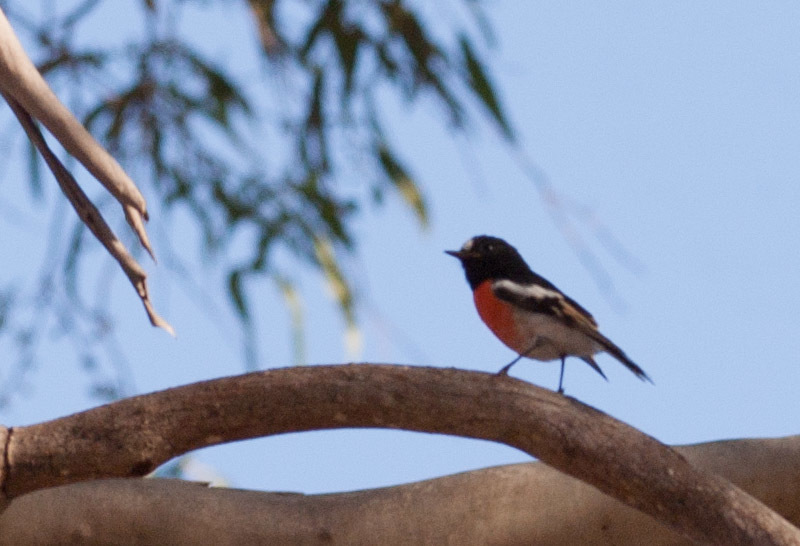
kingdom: Animalia
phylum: Chordata
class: Aves
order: Passeriformes
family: Petroicidae
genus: Petroica
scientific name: Petroica boodang
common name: Scarlet robin
